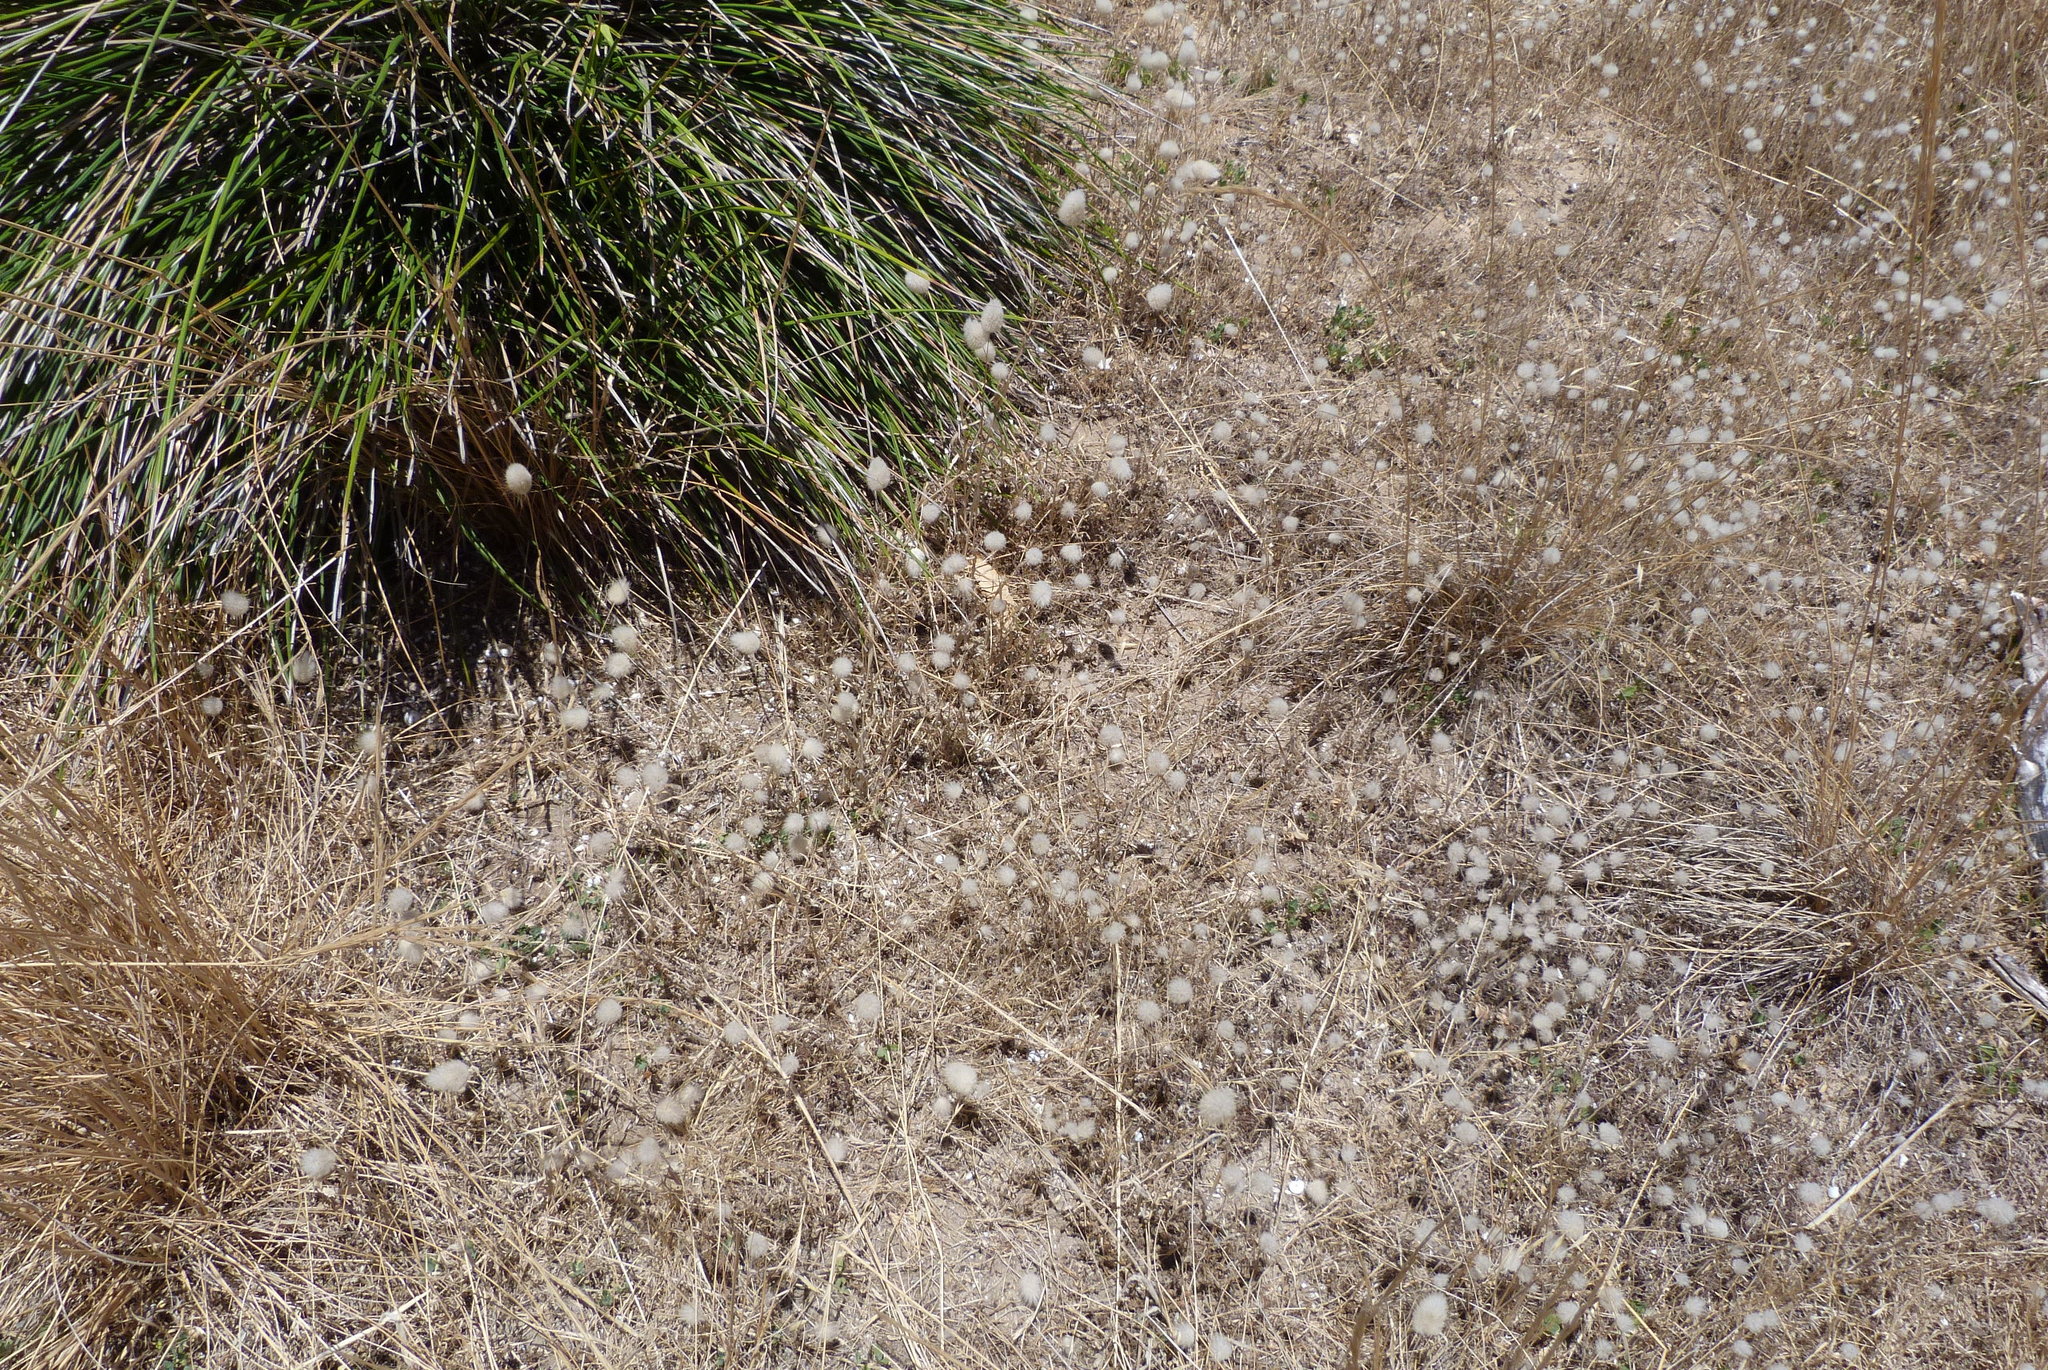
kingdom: Plantae
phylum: Tracheophyta
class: Liliopsida
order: Poales
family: Poaceae
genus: Lagurus
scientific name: Lagurus ovatus
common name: Hare's-tail
